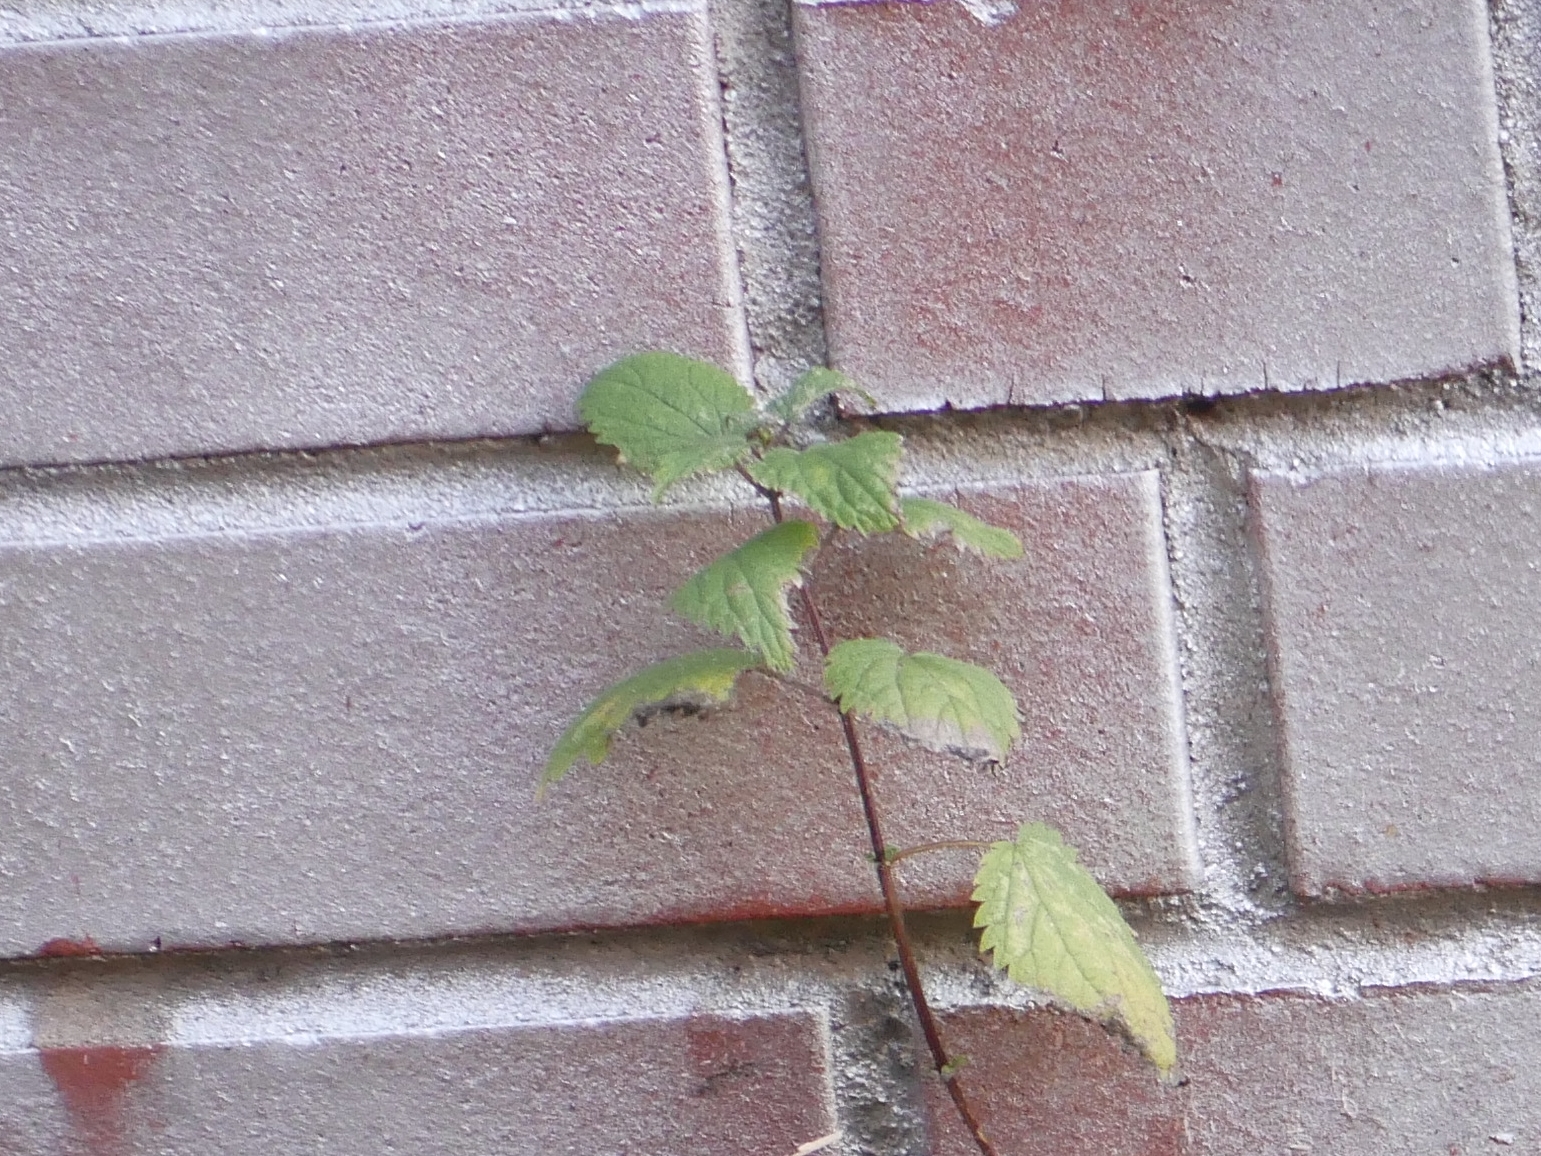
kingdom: Plantae
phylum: Tracheophyta
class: Magnoliopsida
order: Rosales
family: Urticaceae
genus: Urtica
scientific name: Urtica dioica
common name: Common nettle
